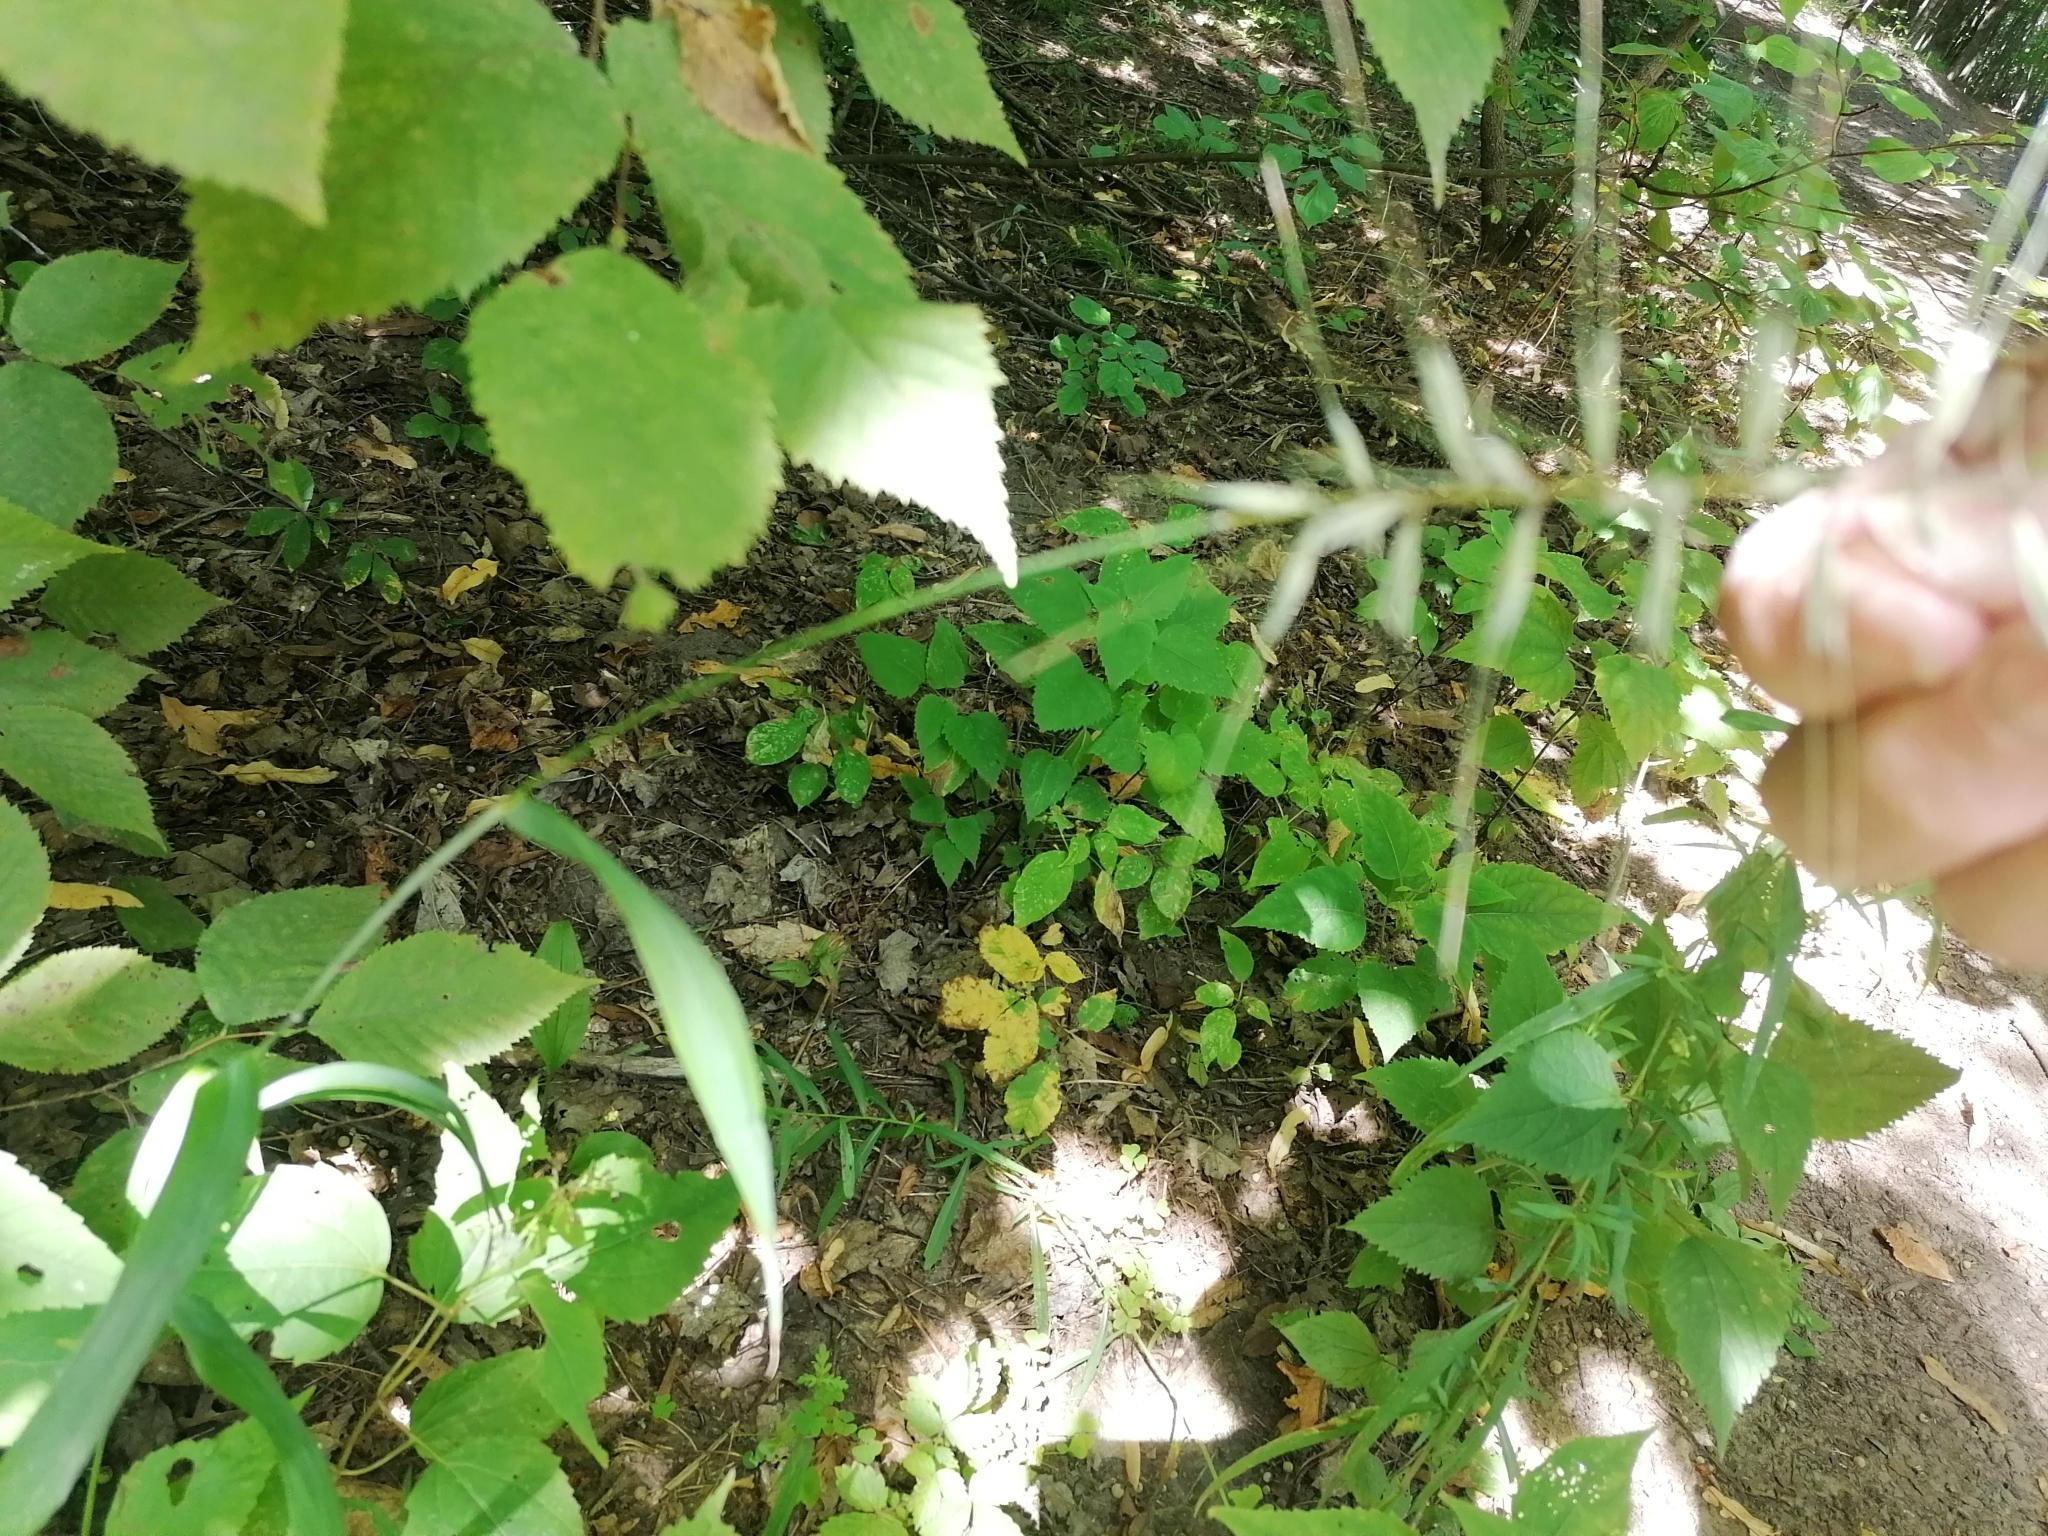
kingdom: Plantae
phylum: Tracheophyta
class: Liliopsida
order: Poales
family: Poaceae
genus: Elymus
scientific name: Elymus hystrix
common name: Bottlebrush grass
